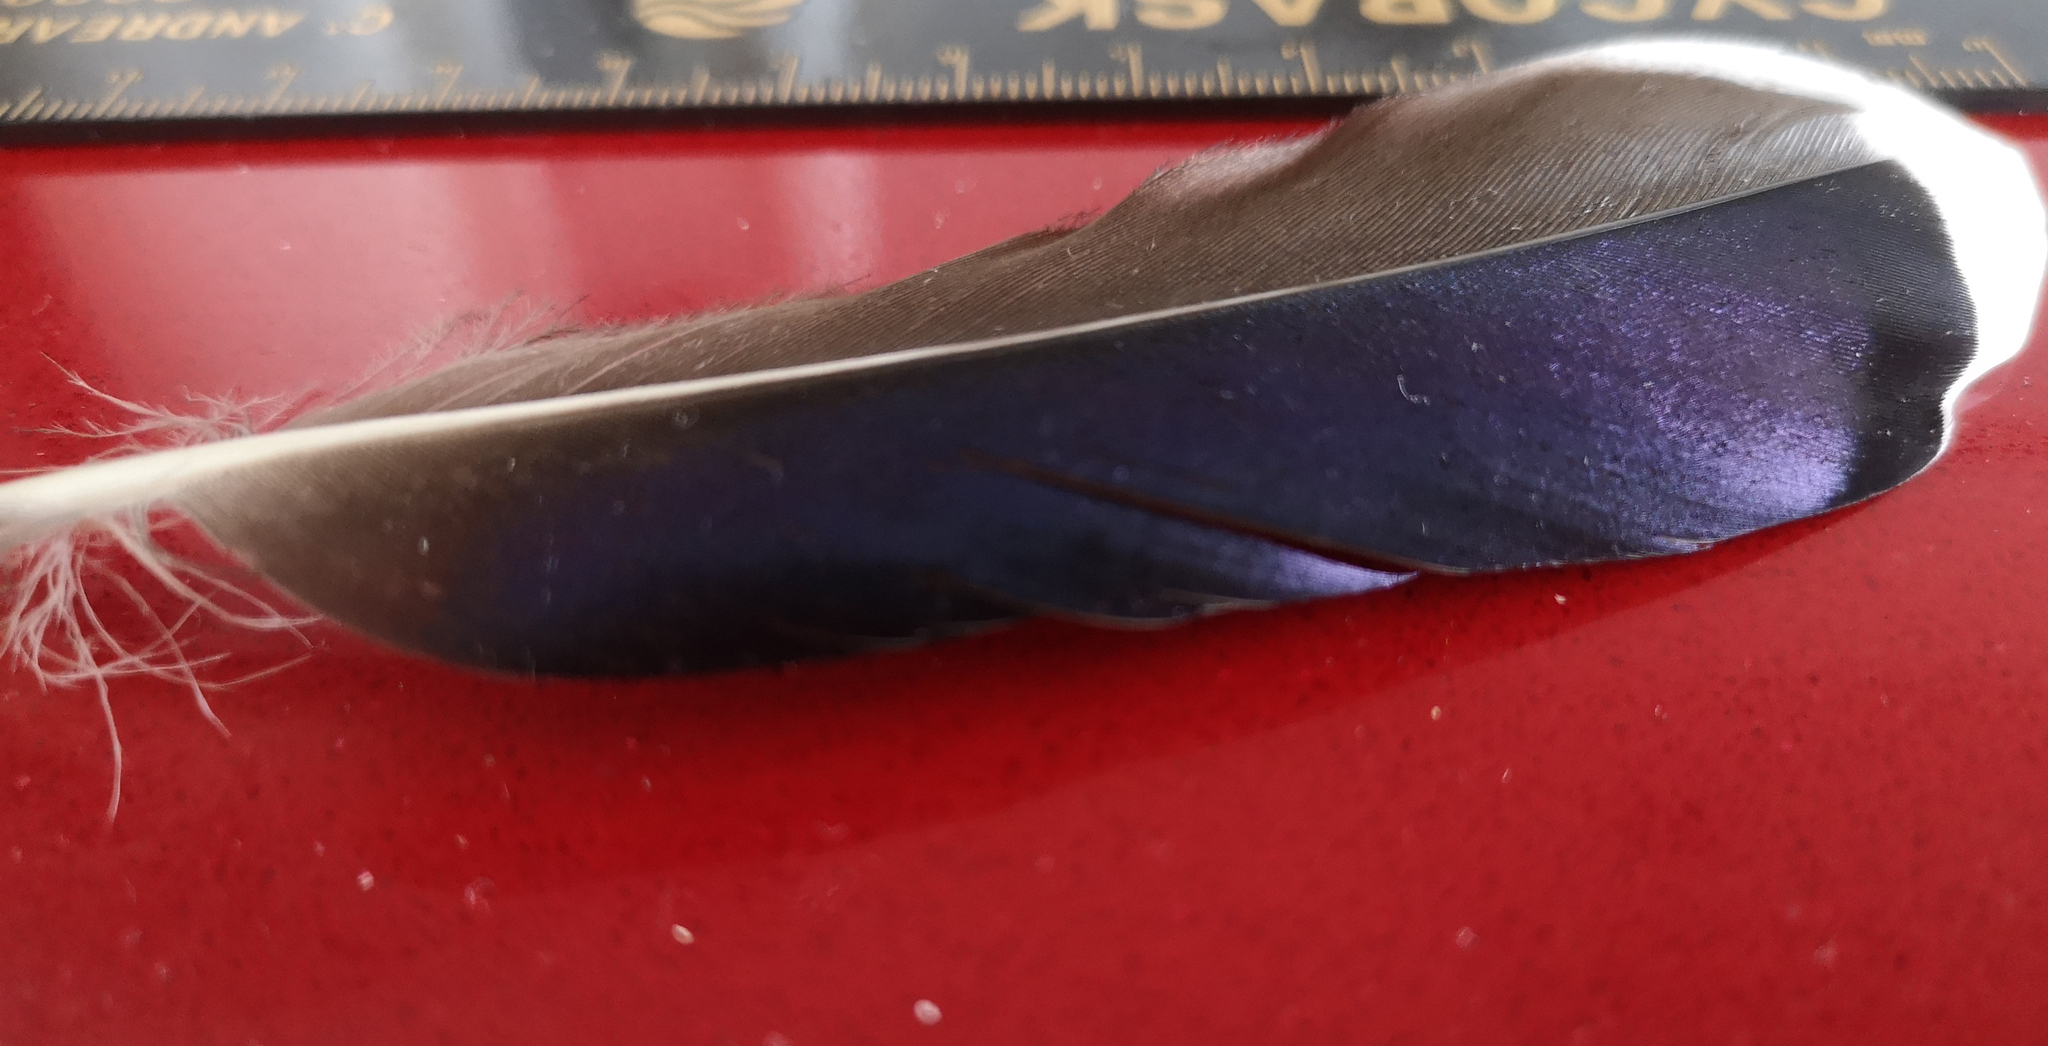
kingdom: Animalia
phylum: Chordata
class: Aves
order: Anseriformes
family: Anatidae
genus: Anas
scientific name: Anas platyrhynchos
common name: Mallard
